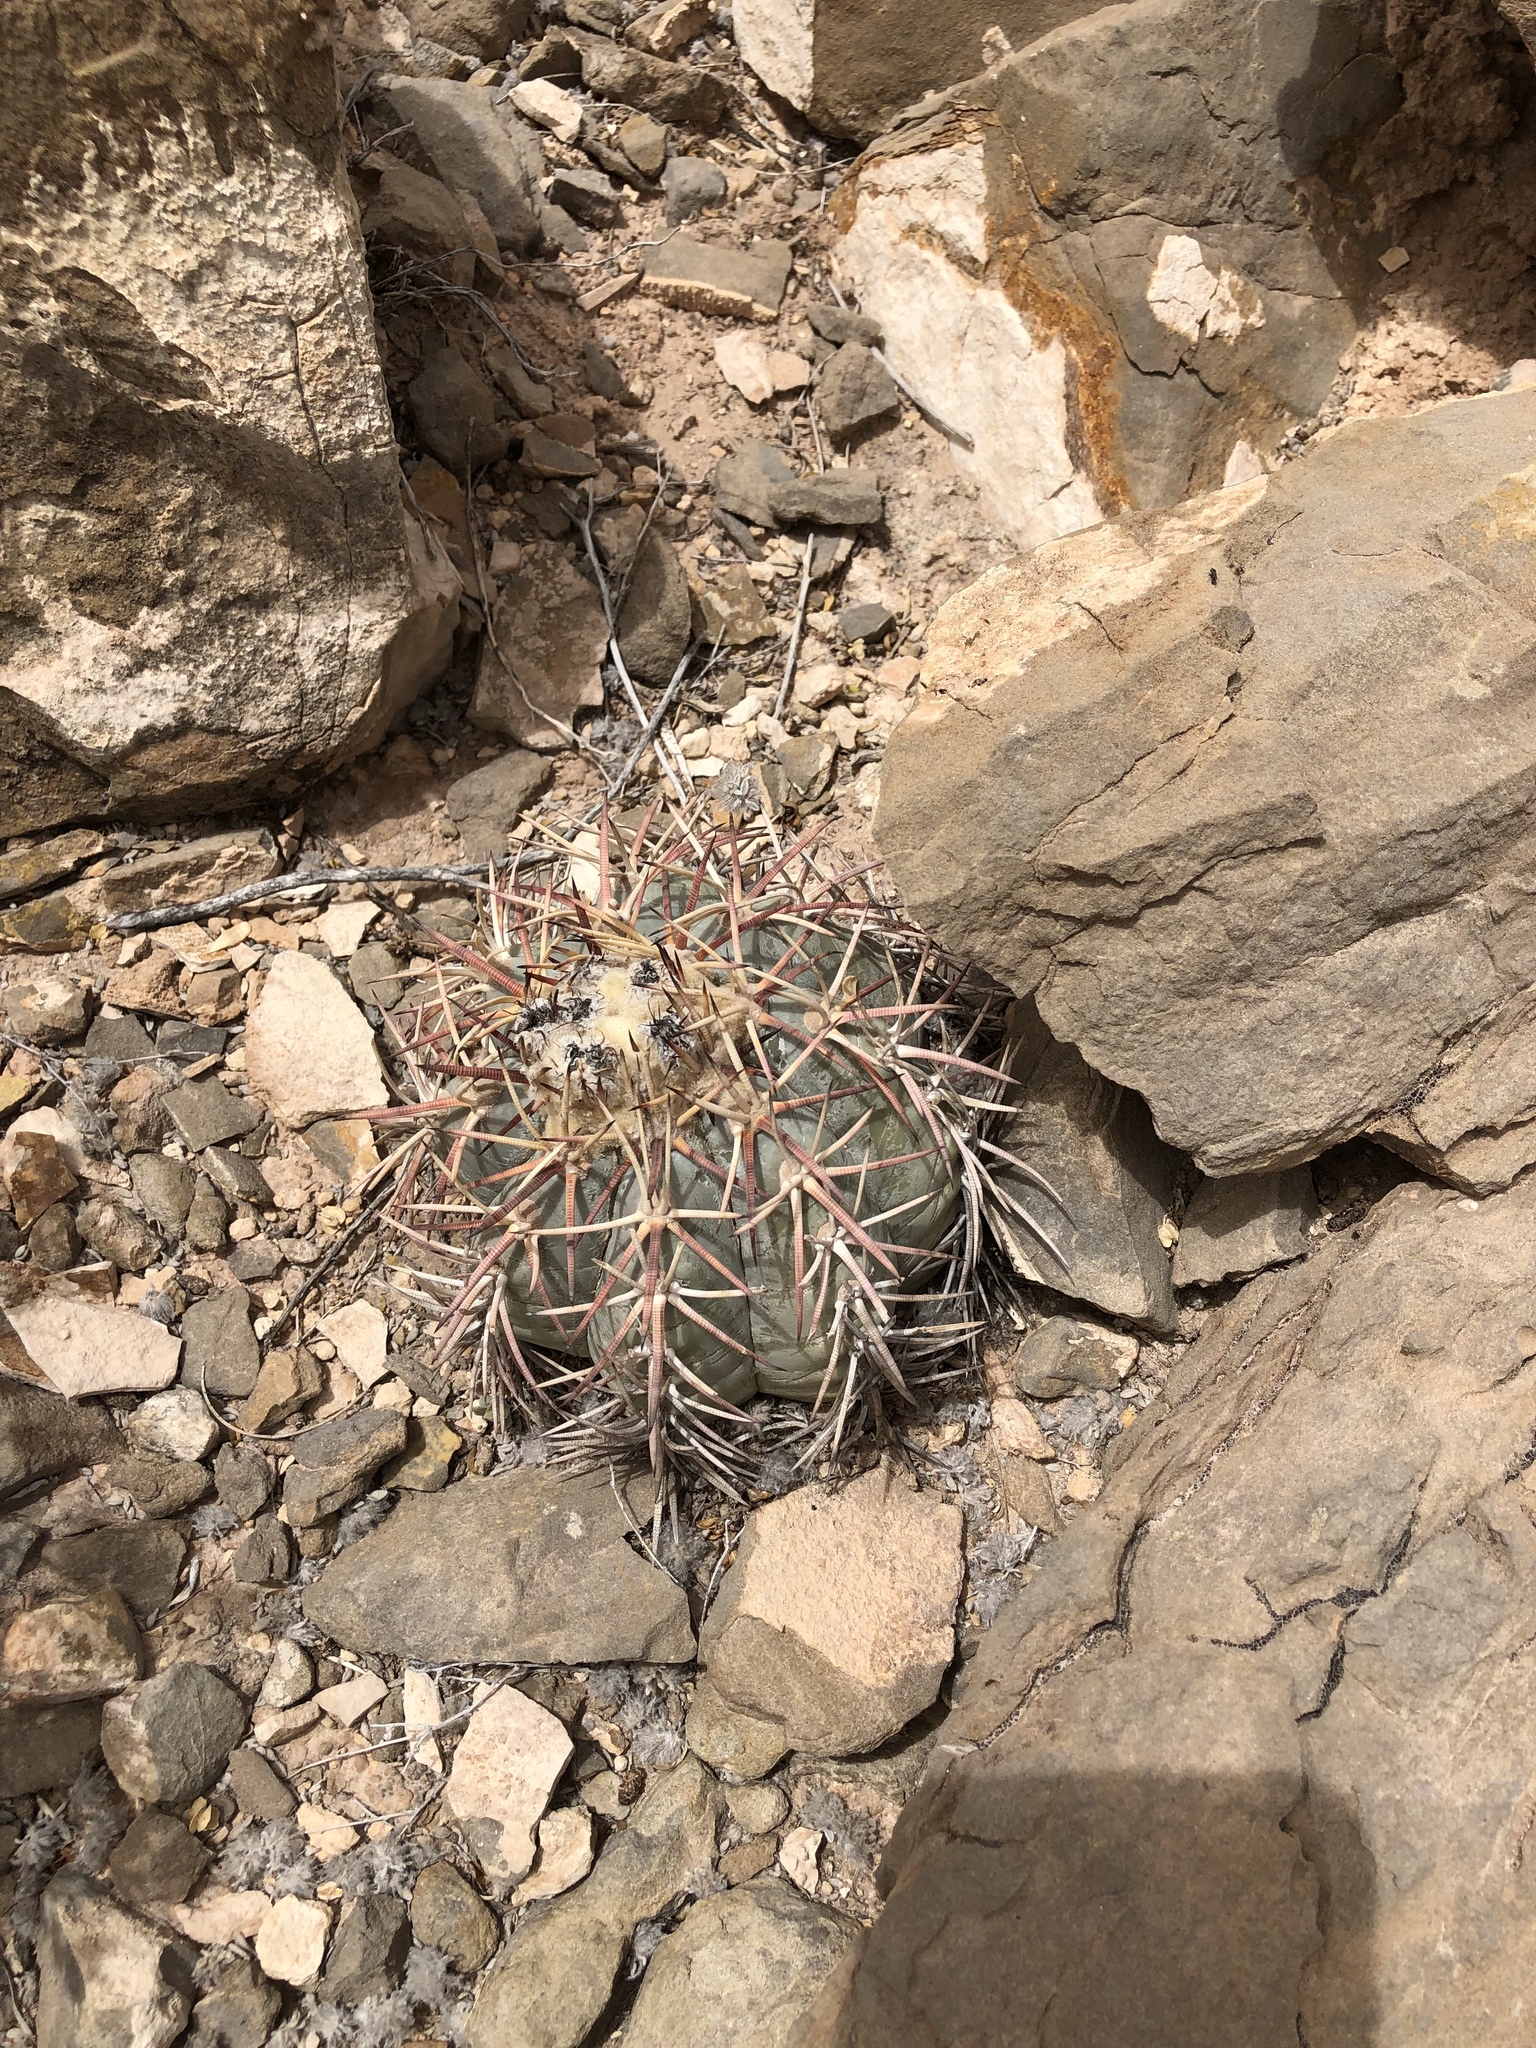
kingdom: Plantae
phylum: Tracheophyta
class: Magnoliopsida
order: Caryophyllales
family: Cactaceae
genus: Echinocactus
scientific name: Echinocactus horizonthalonius
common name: Devilshead
